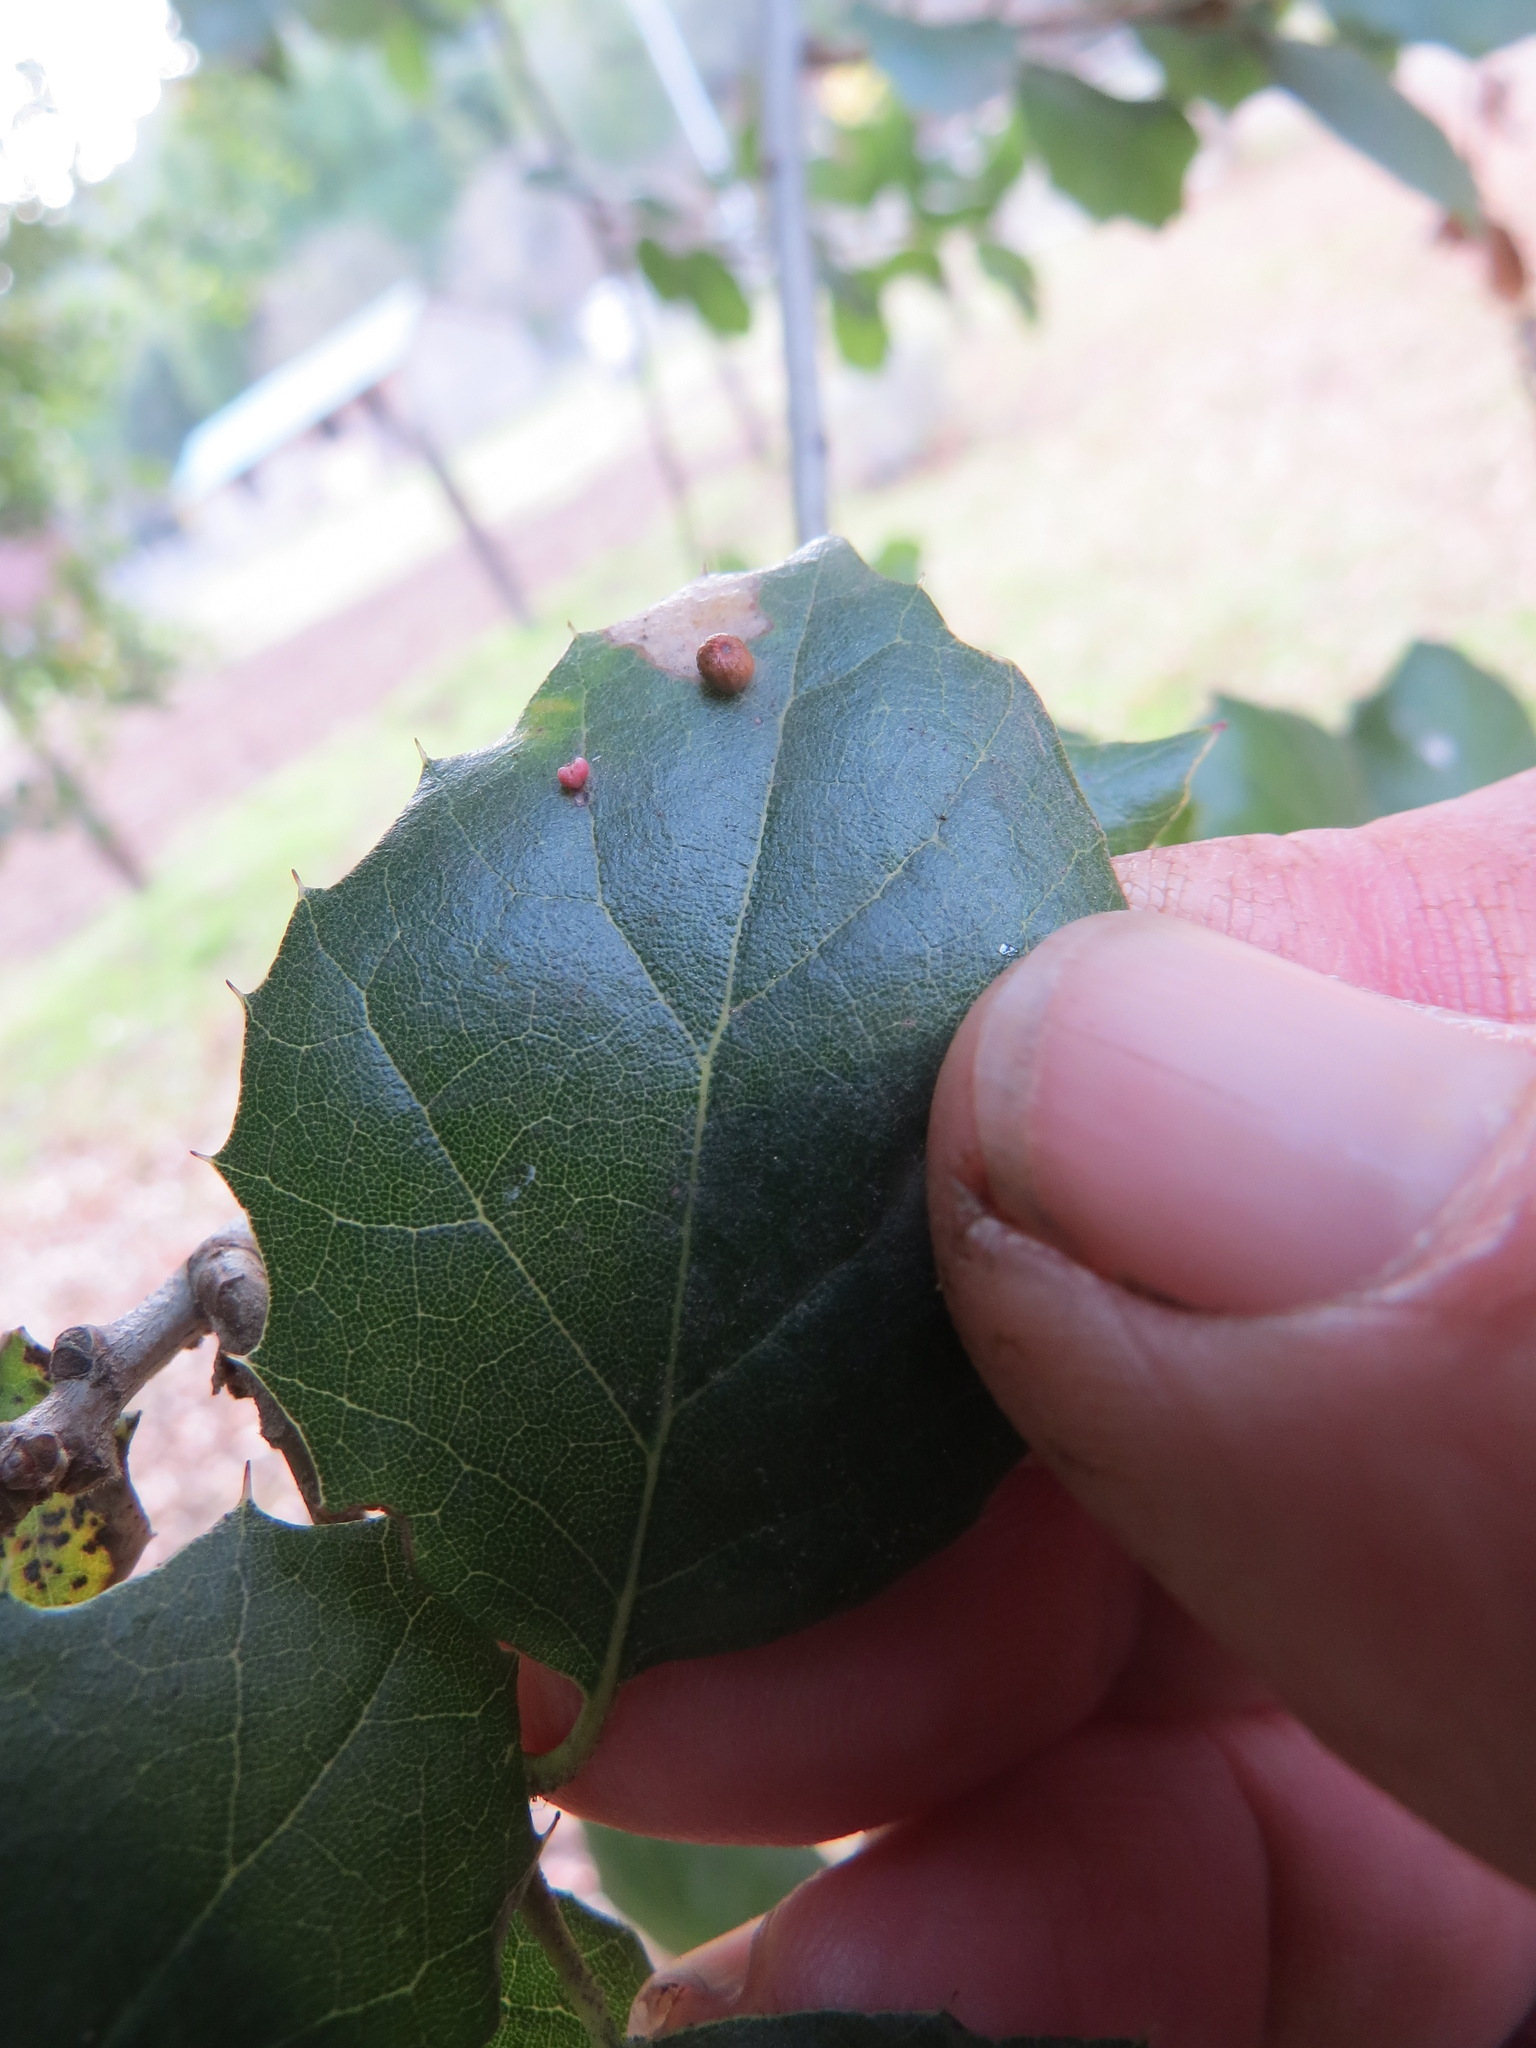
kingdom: Animalia
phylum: Arthropoda
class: Insecta
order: Hymenoptera
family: Cynipidae
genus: Dryocosmus
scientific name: Dryocosmus
